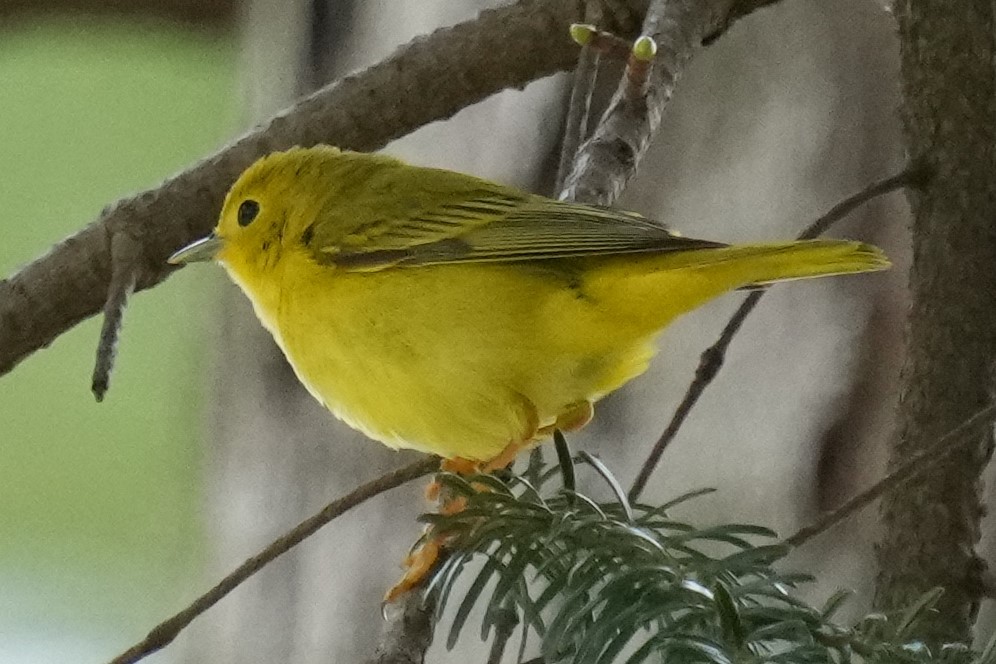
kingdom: Animalia
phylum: Chordata
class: Aves
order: Passeriformes
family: Parulidae
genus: Setophaga
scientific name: Setophaga petechia
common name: Yellow warbler
